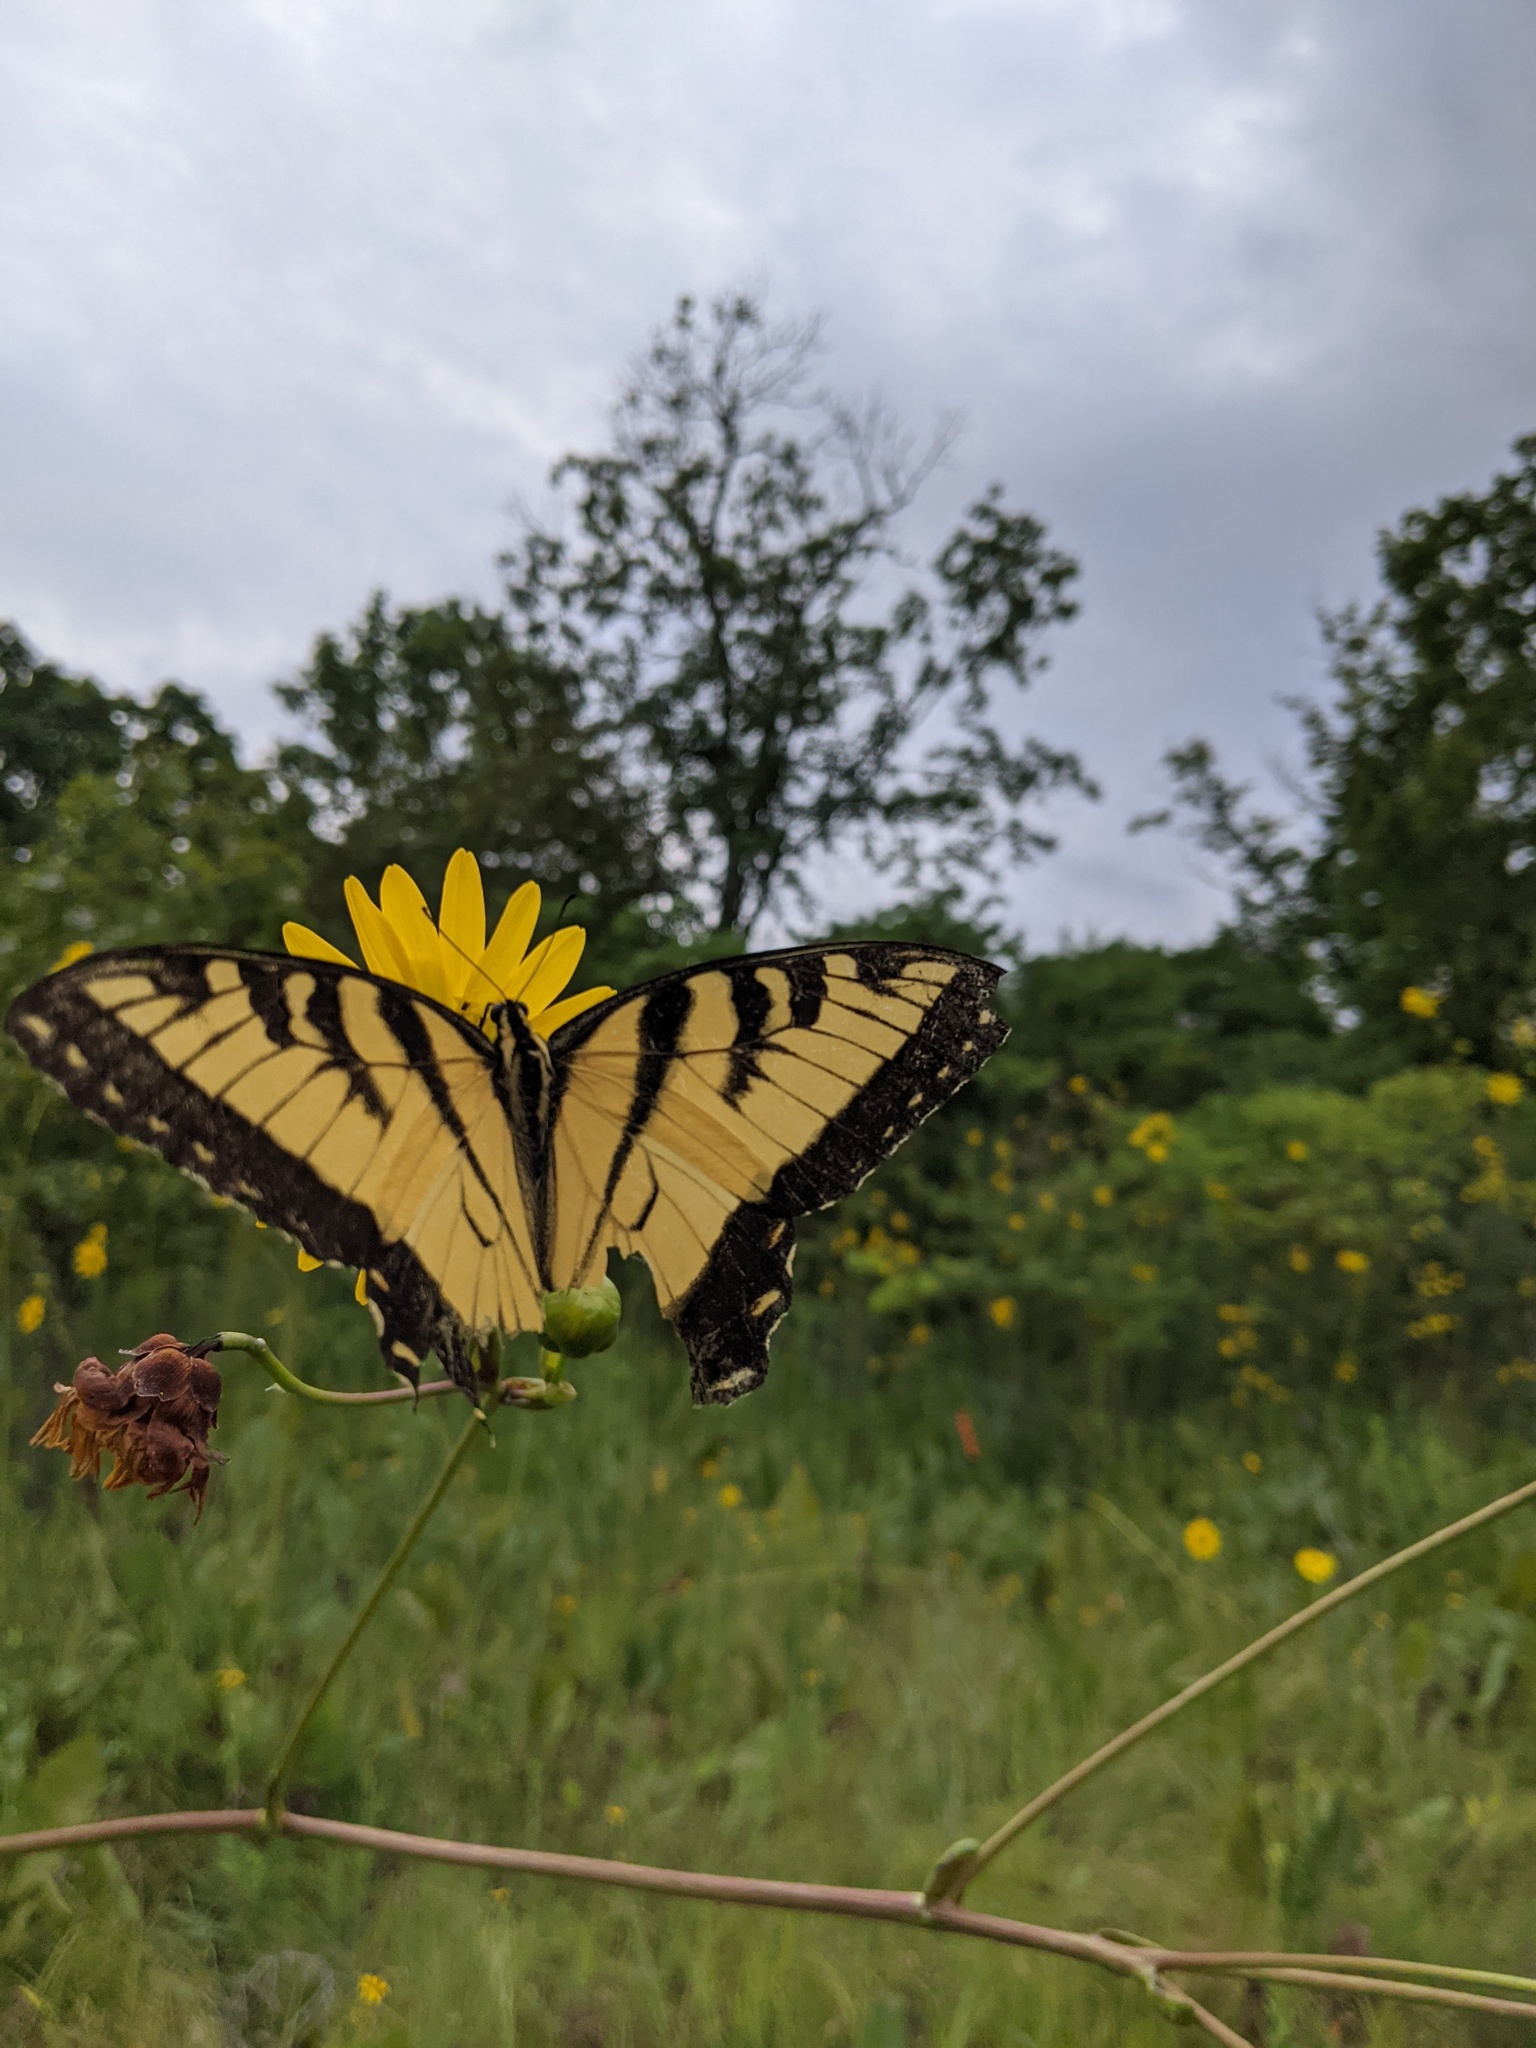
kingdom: Animalia
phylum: Arthropoda
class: Insecta
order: Lepidoptera
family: Papilionidae
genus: Papilio
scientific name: Papilio glaucus
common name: Tiger swallowtail
